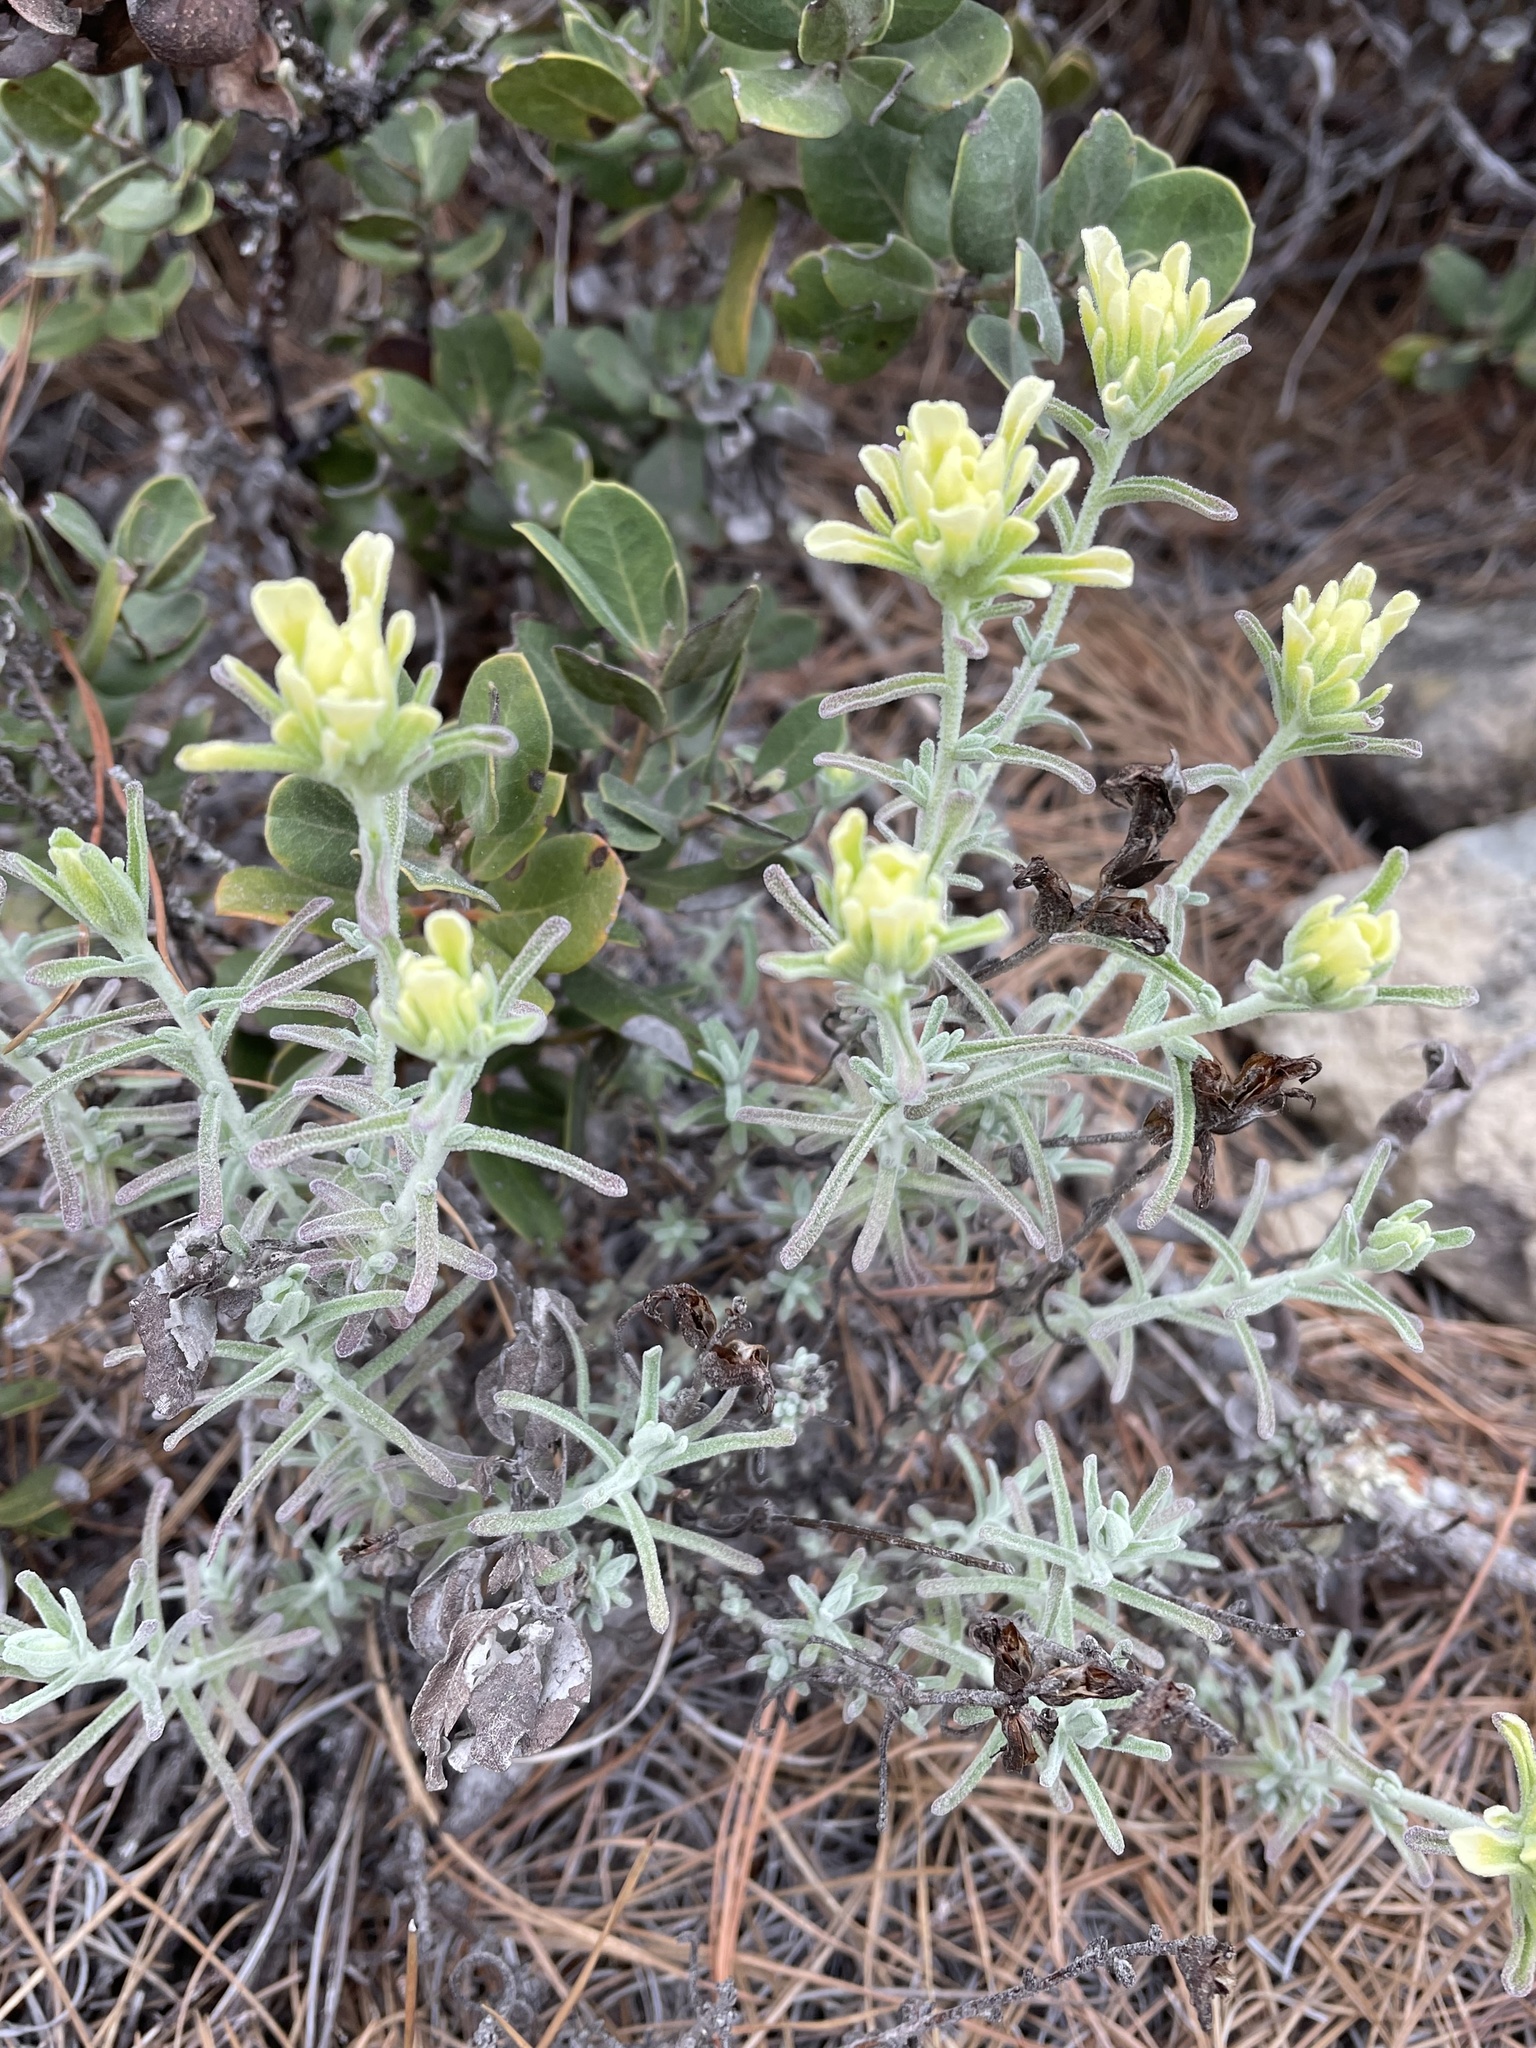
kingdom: Plantae
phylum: Tracheophyta
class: Magnoliopsida
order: Lamiales
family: Orobanchaceae
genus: Castilleja
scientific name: Castilleja foliolosa
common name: Woolly indian paintbrush
